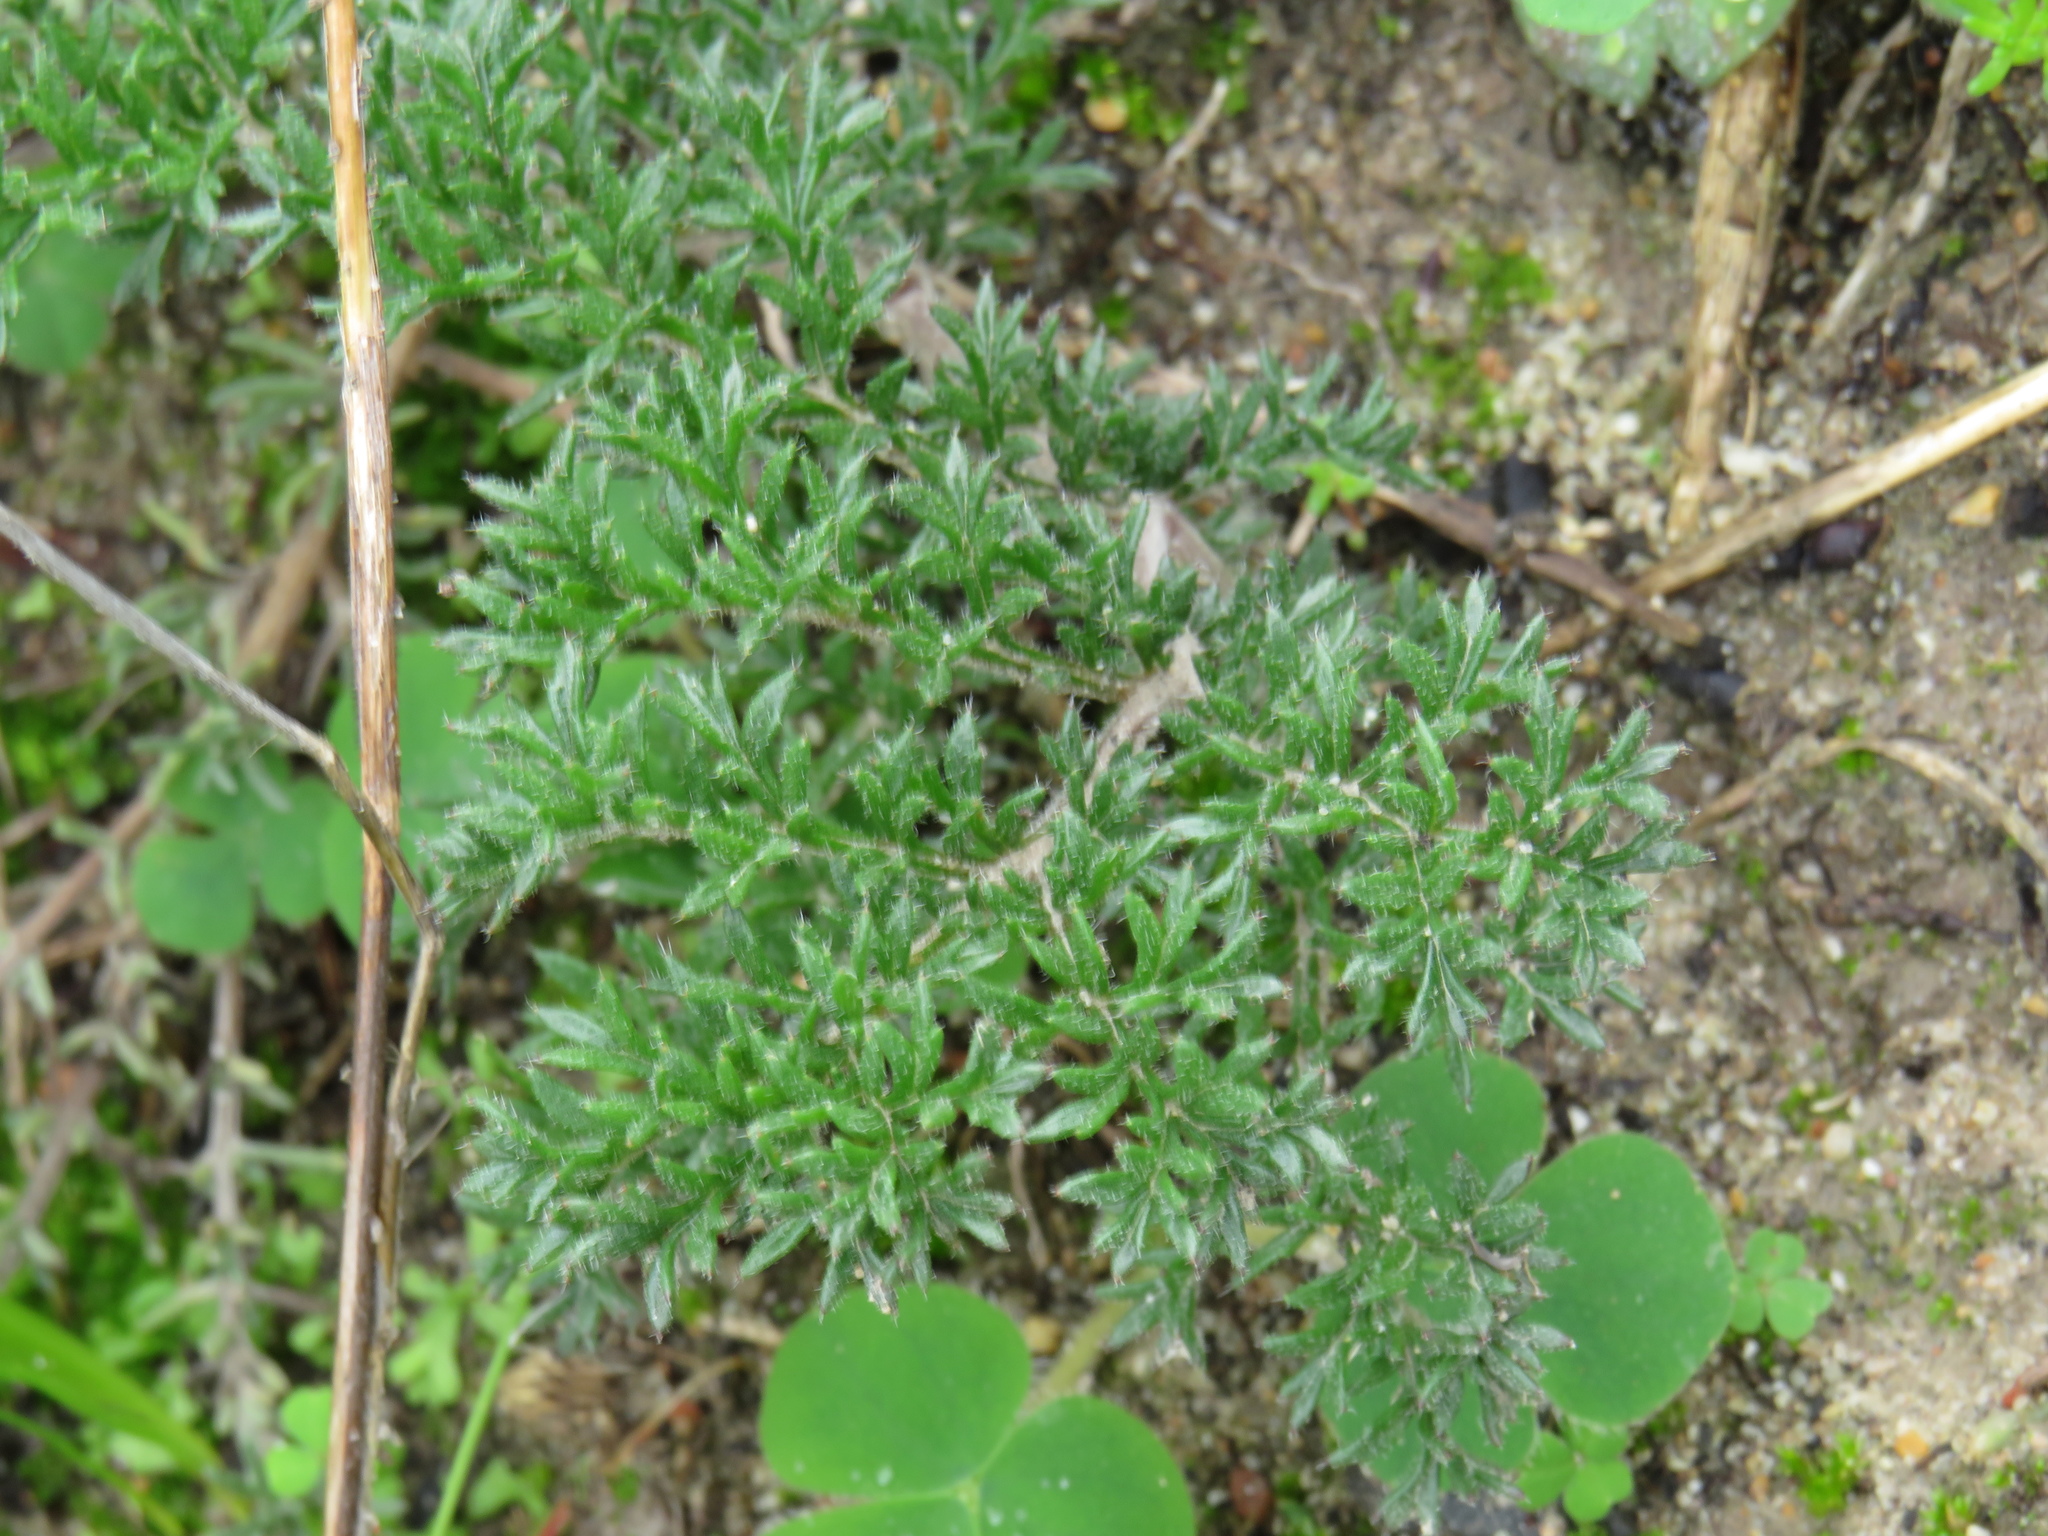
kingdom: Plantae
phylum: Tracheophyta
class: Magnoliopsida
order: Geraniales
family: Geraniaceae
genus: Pelargonium
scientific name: Pelargonium triste
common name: Night-scent pelargonium
